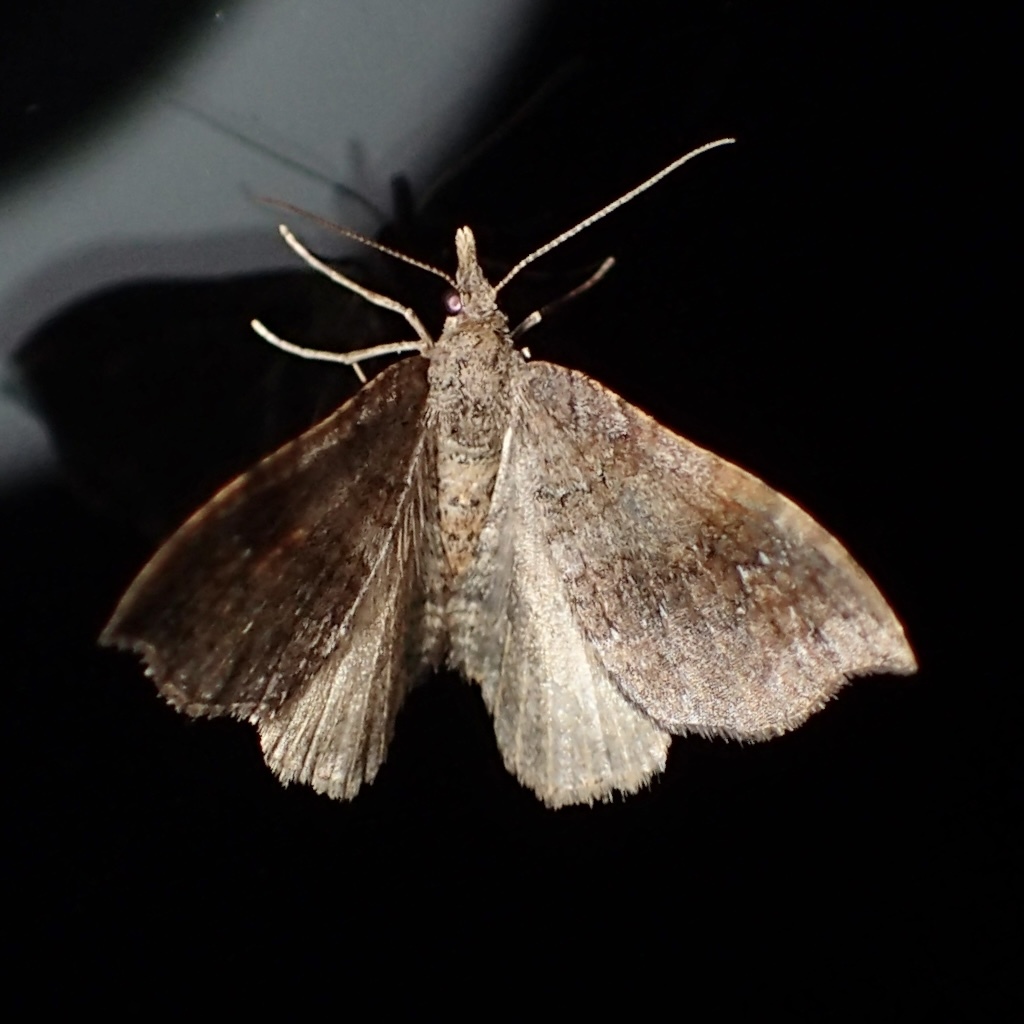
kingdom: Animalia
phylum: Arthropoda
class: Insecta
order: Lepidoptera
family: Geometridae
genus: Homodotis
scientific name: Homodotis megaspilata
